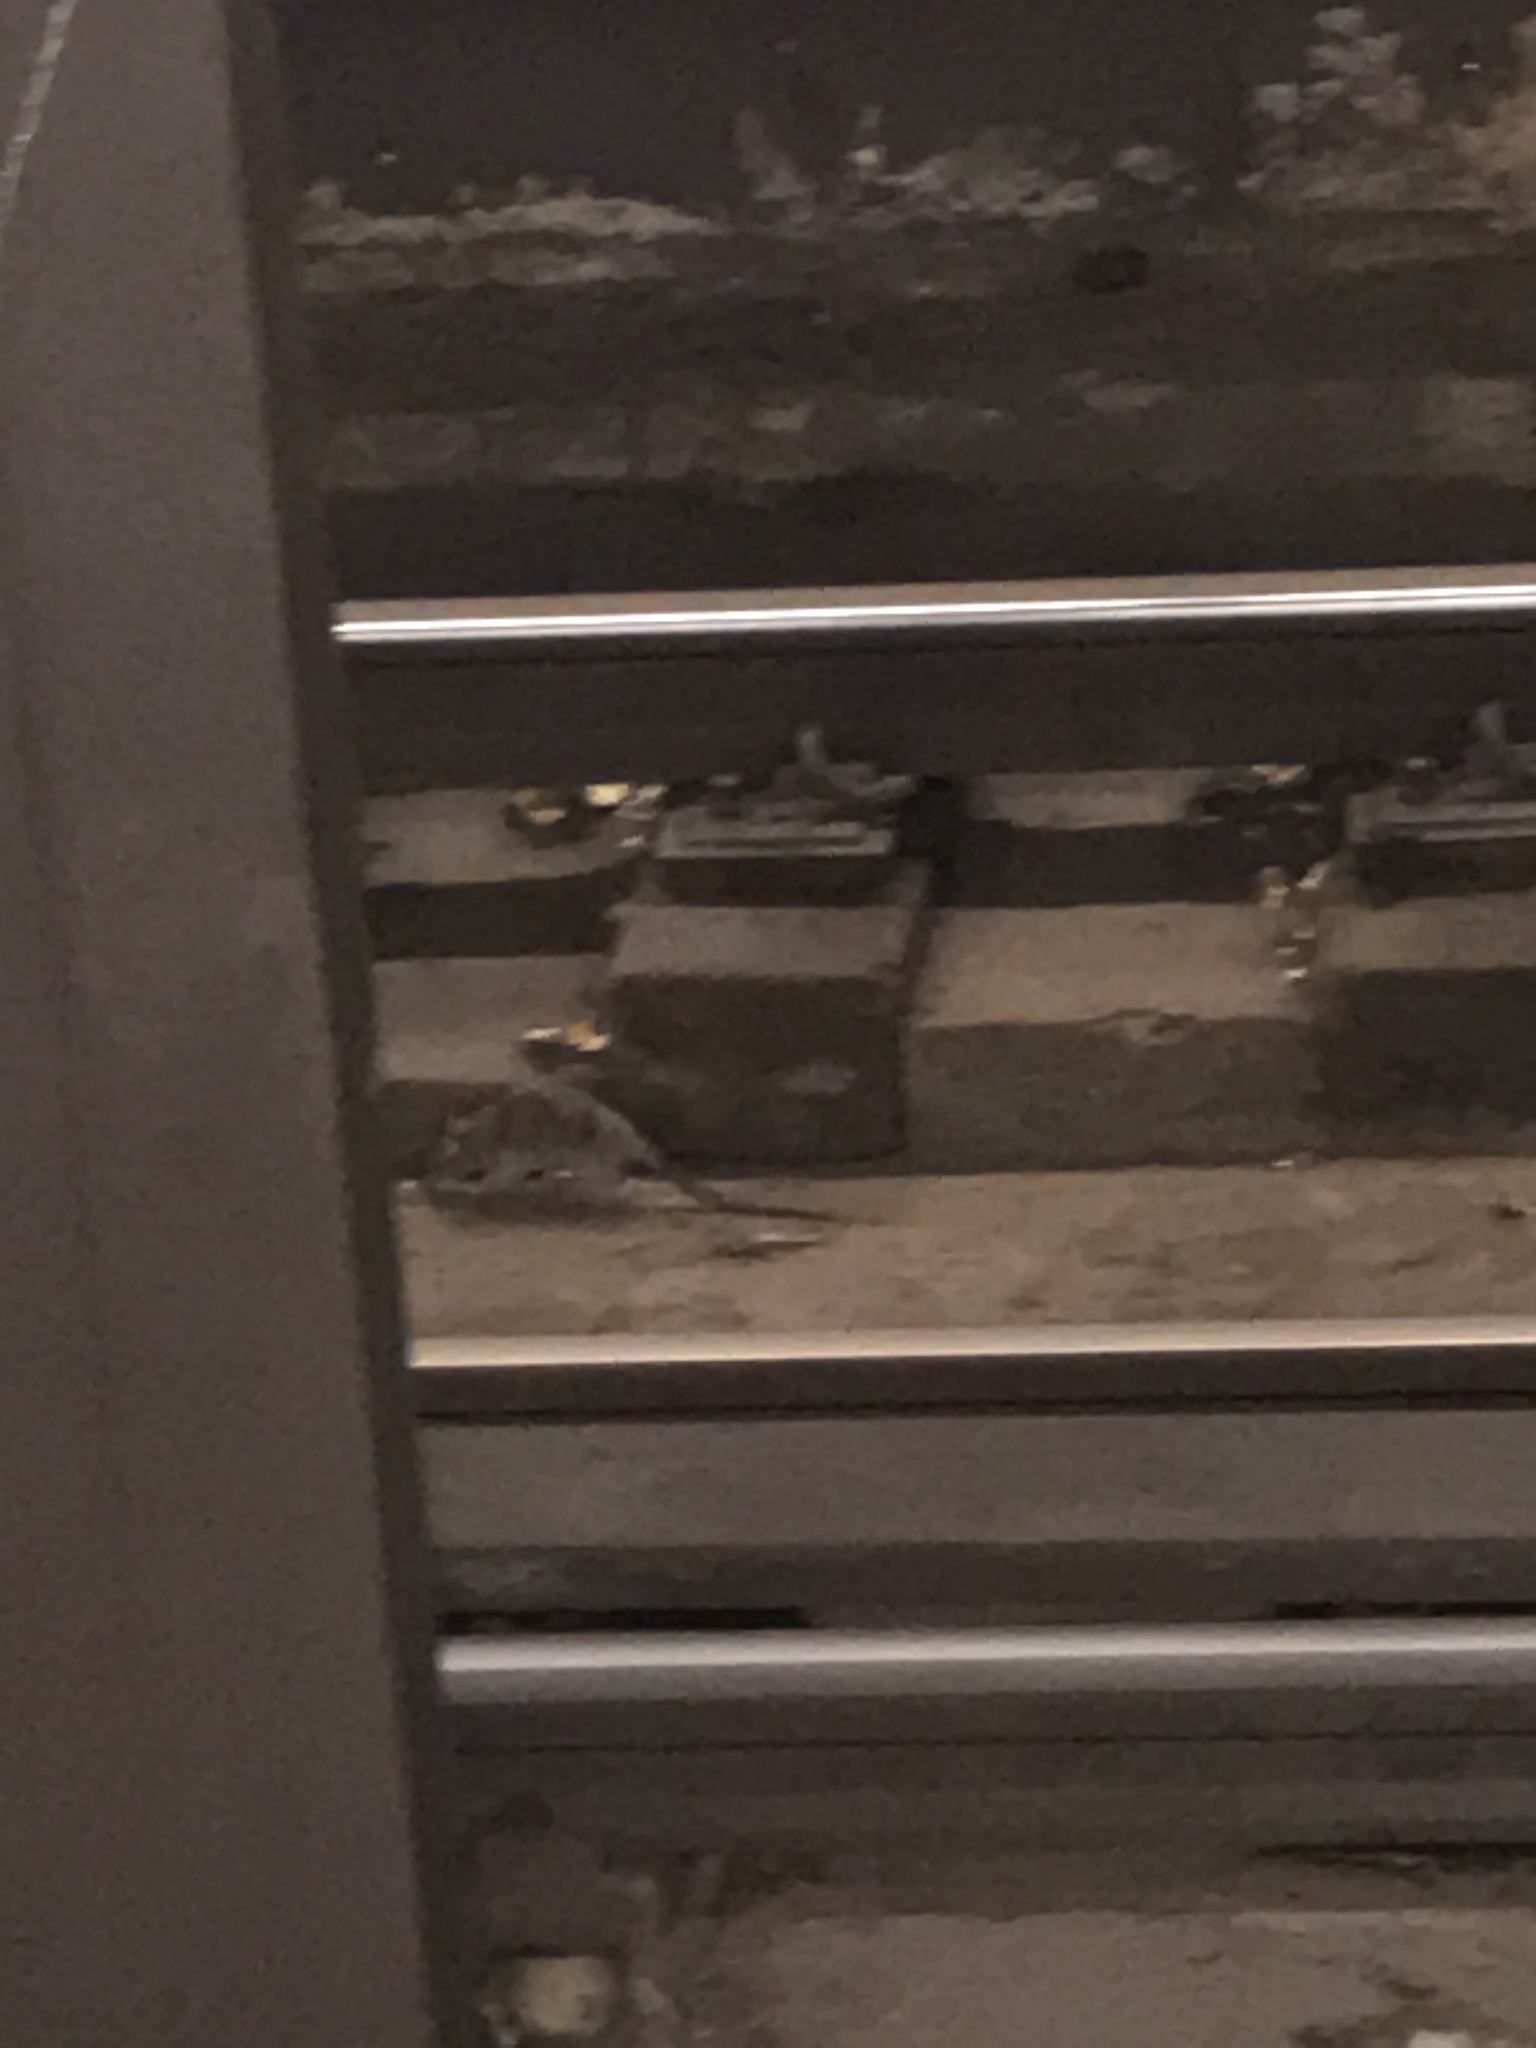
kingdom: Animalia
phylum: Chordata
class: Mammalia
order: Rodentia
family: Muridae
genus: Rattus
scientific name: Rattus norvegicus
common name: Brown rat
